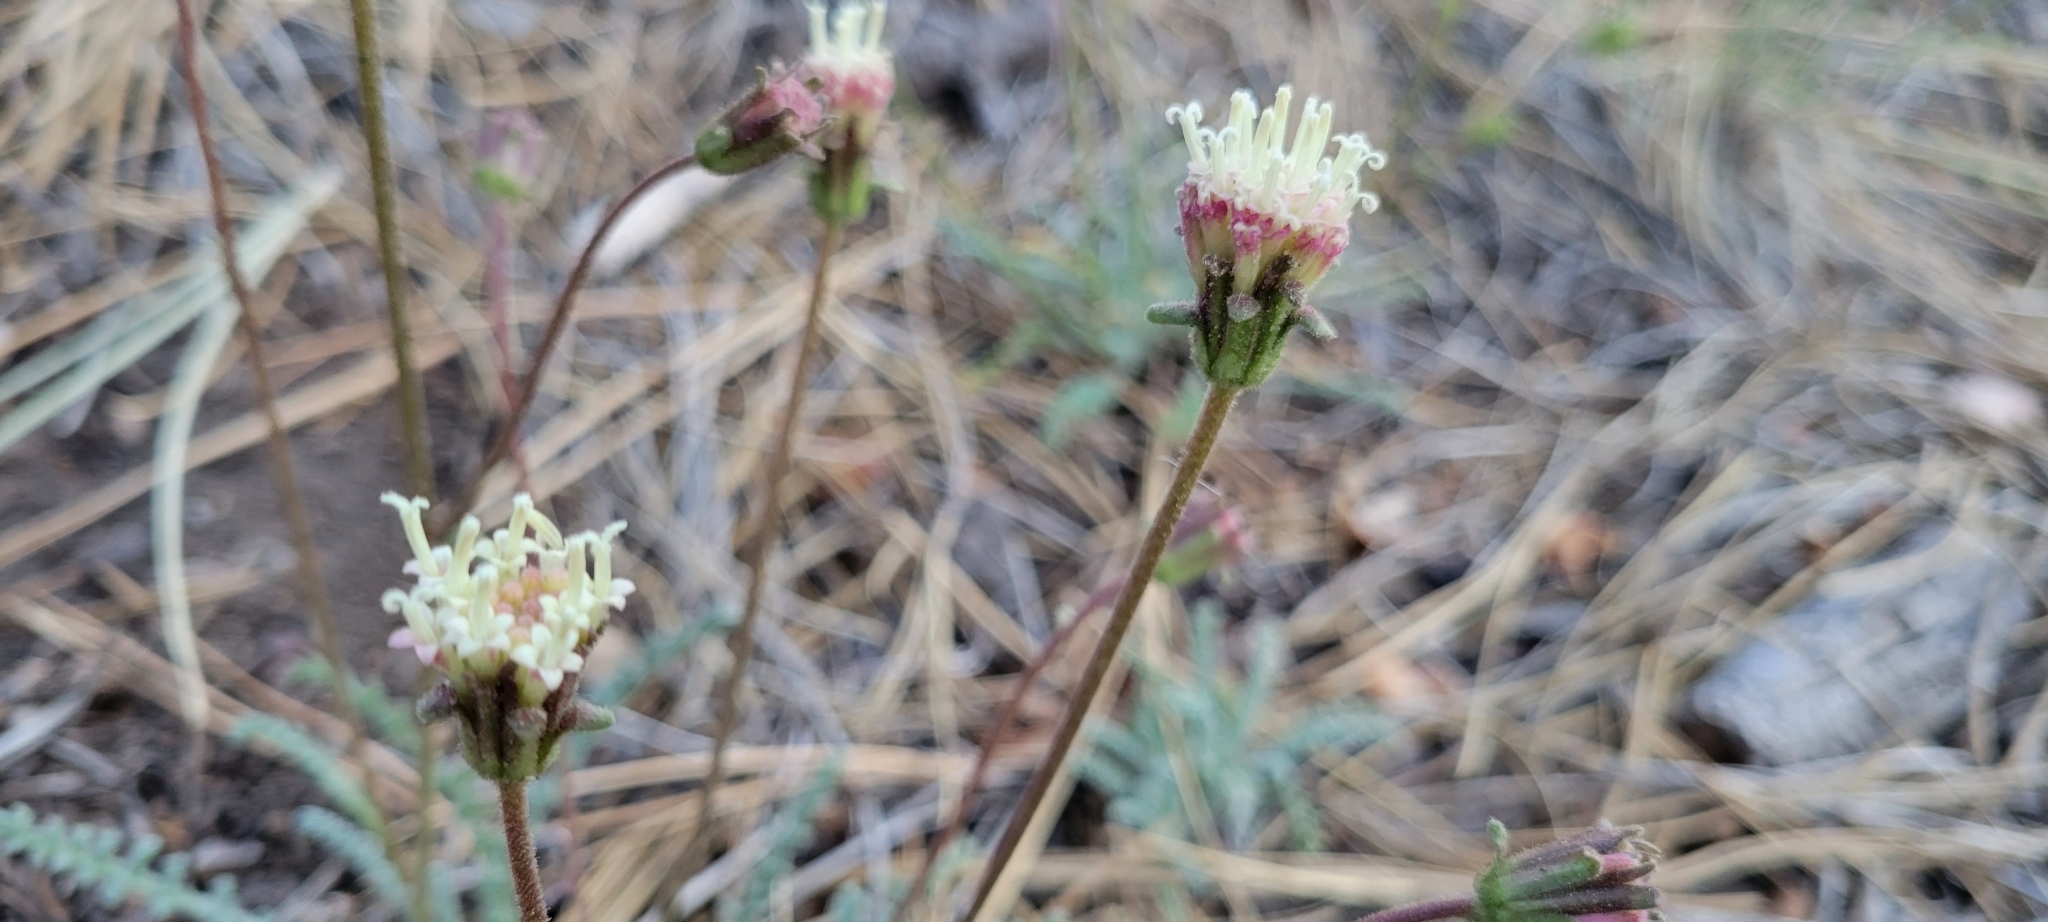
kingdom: Plantae
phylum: Tracheophyta
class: Magnoliopsida
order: Asterales
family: Asteraceae
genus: Chaenactis
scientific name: Chaenactis santolinoides
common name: Santolina pincushion
